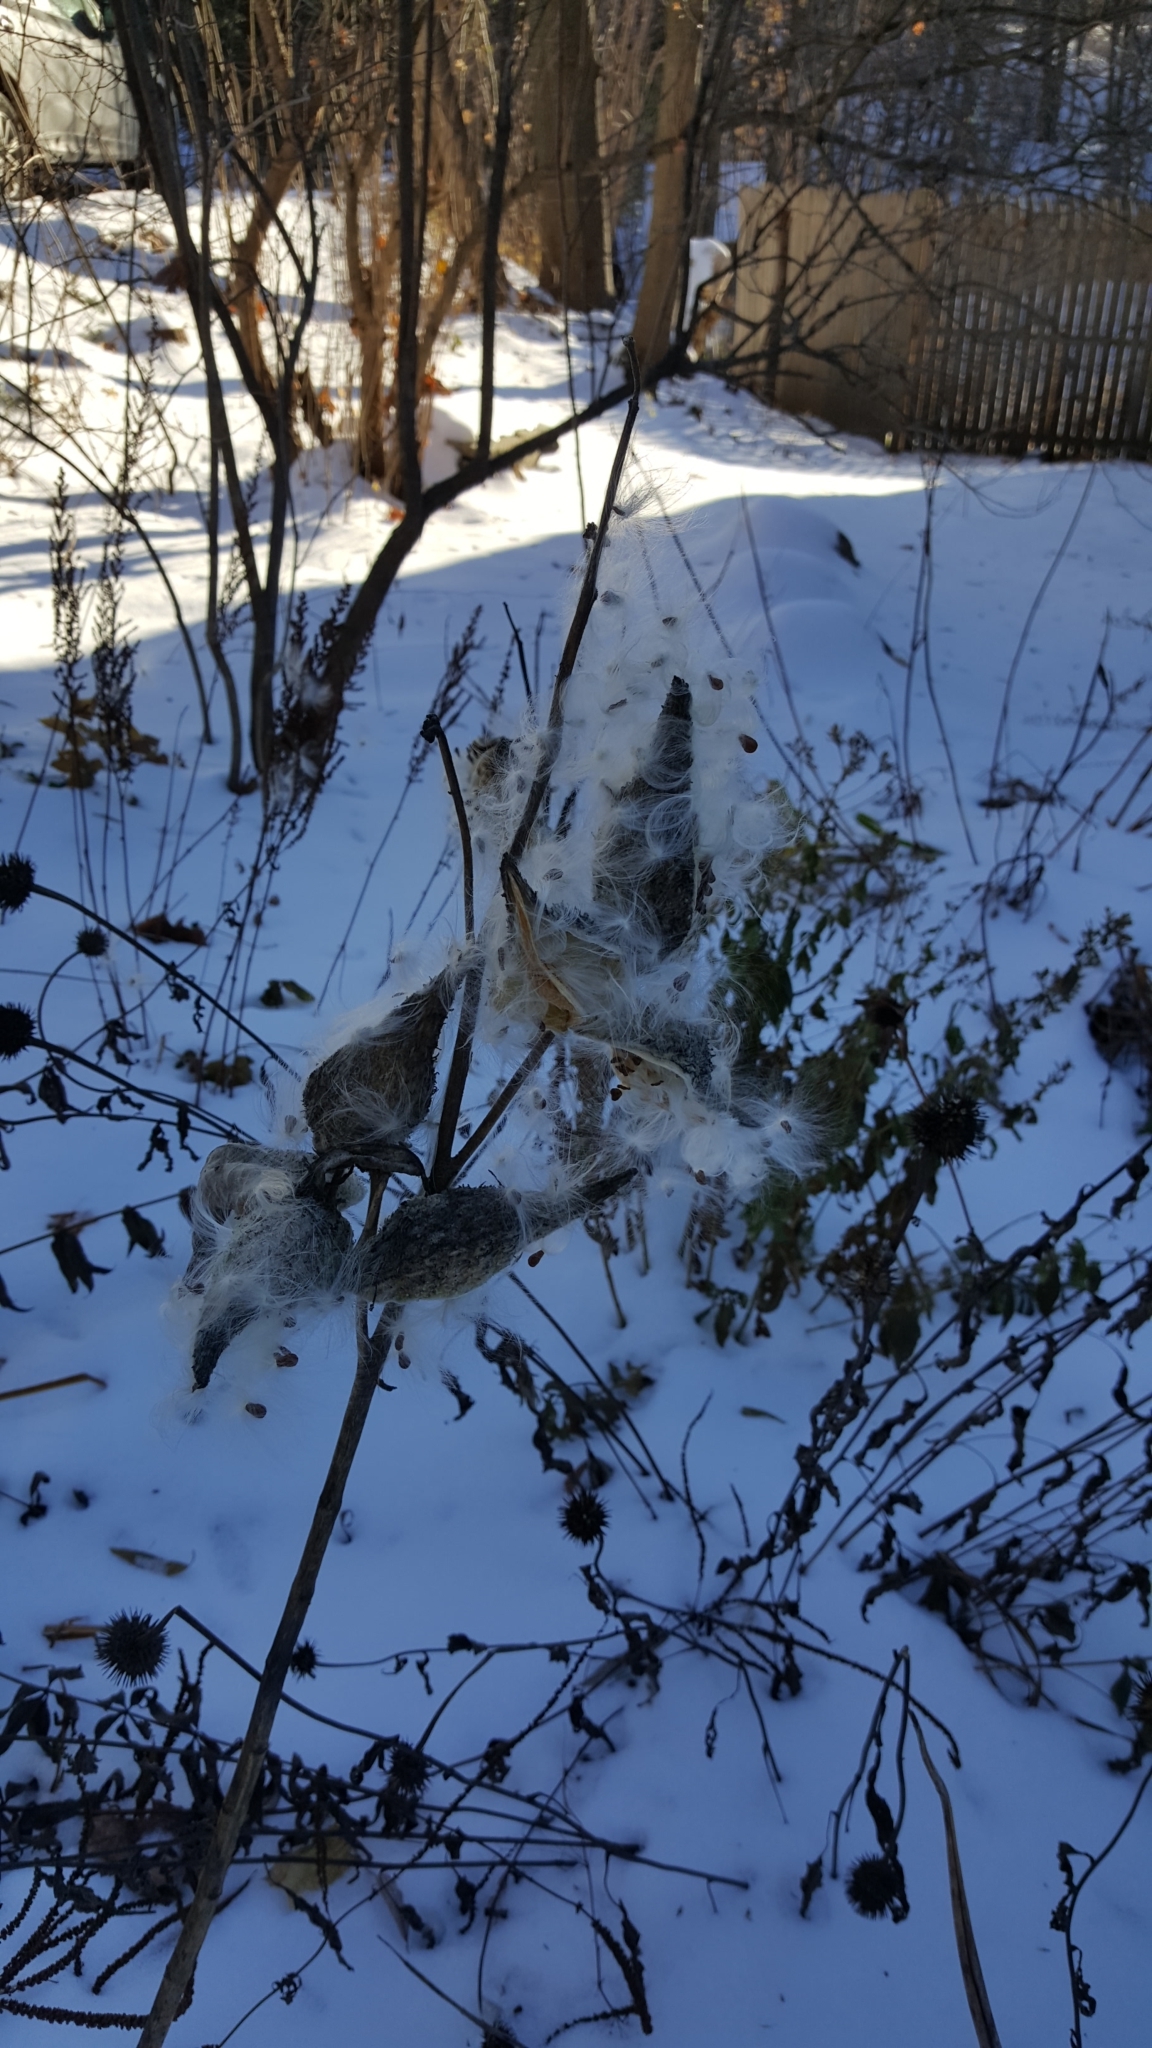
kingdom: Plantae
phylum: Tracheophyta
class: Magnoliopsida
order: Gentianales
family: Apocynaceae
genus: Asclepias
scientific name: Asclepias syriaca
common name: Common milkweed
